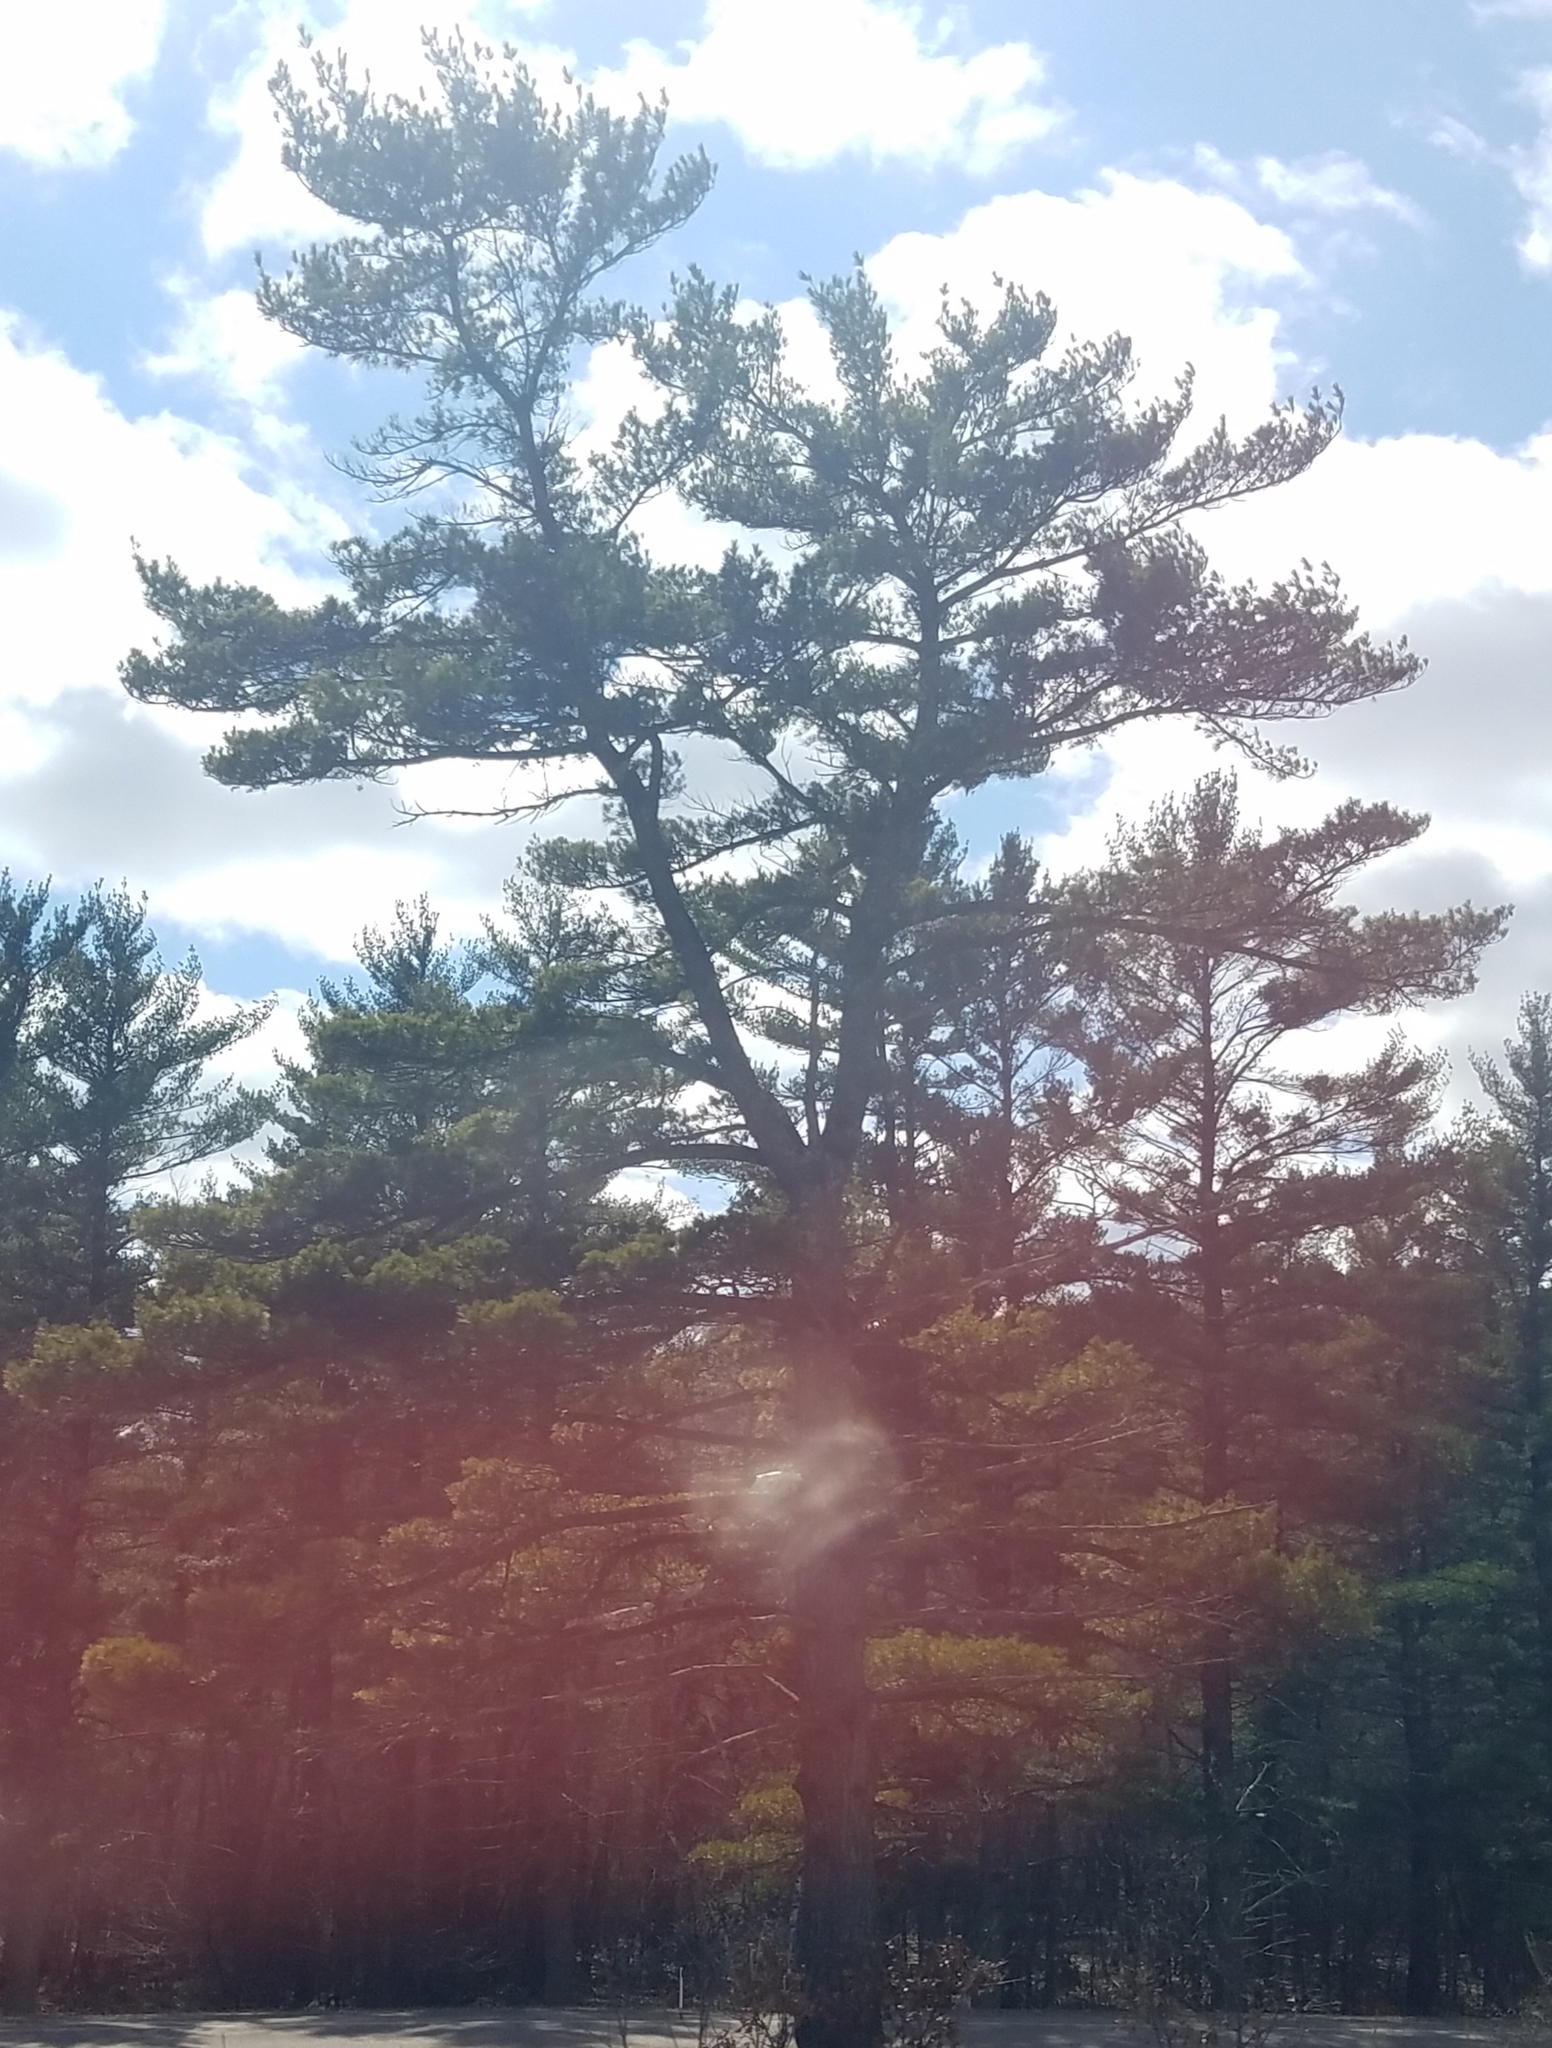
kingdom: Plantae
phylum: Tracheophyta
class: Pinopsida
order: Pinales
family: Pinaceae
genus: Pinus
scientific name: Pinus strobus
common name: Weymouth pine
